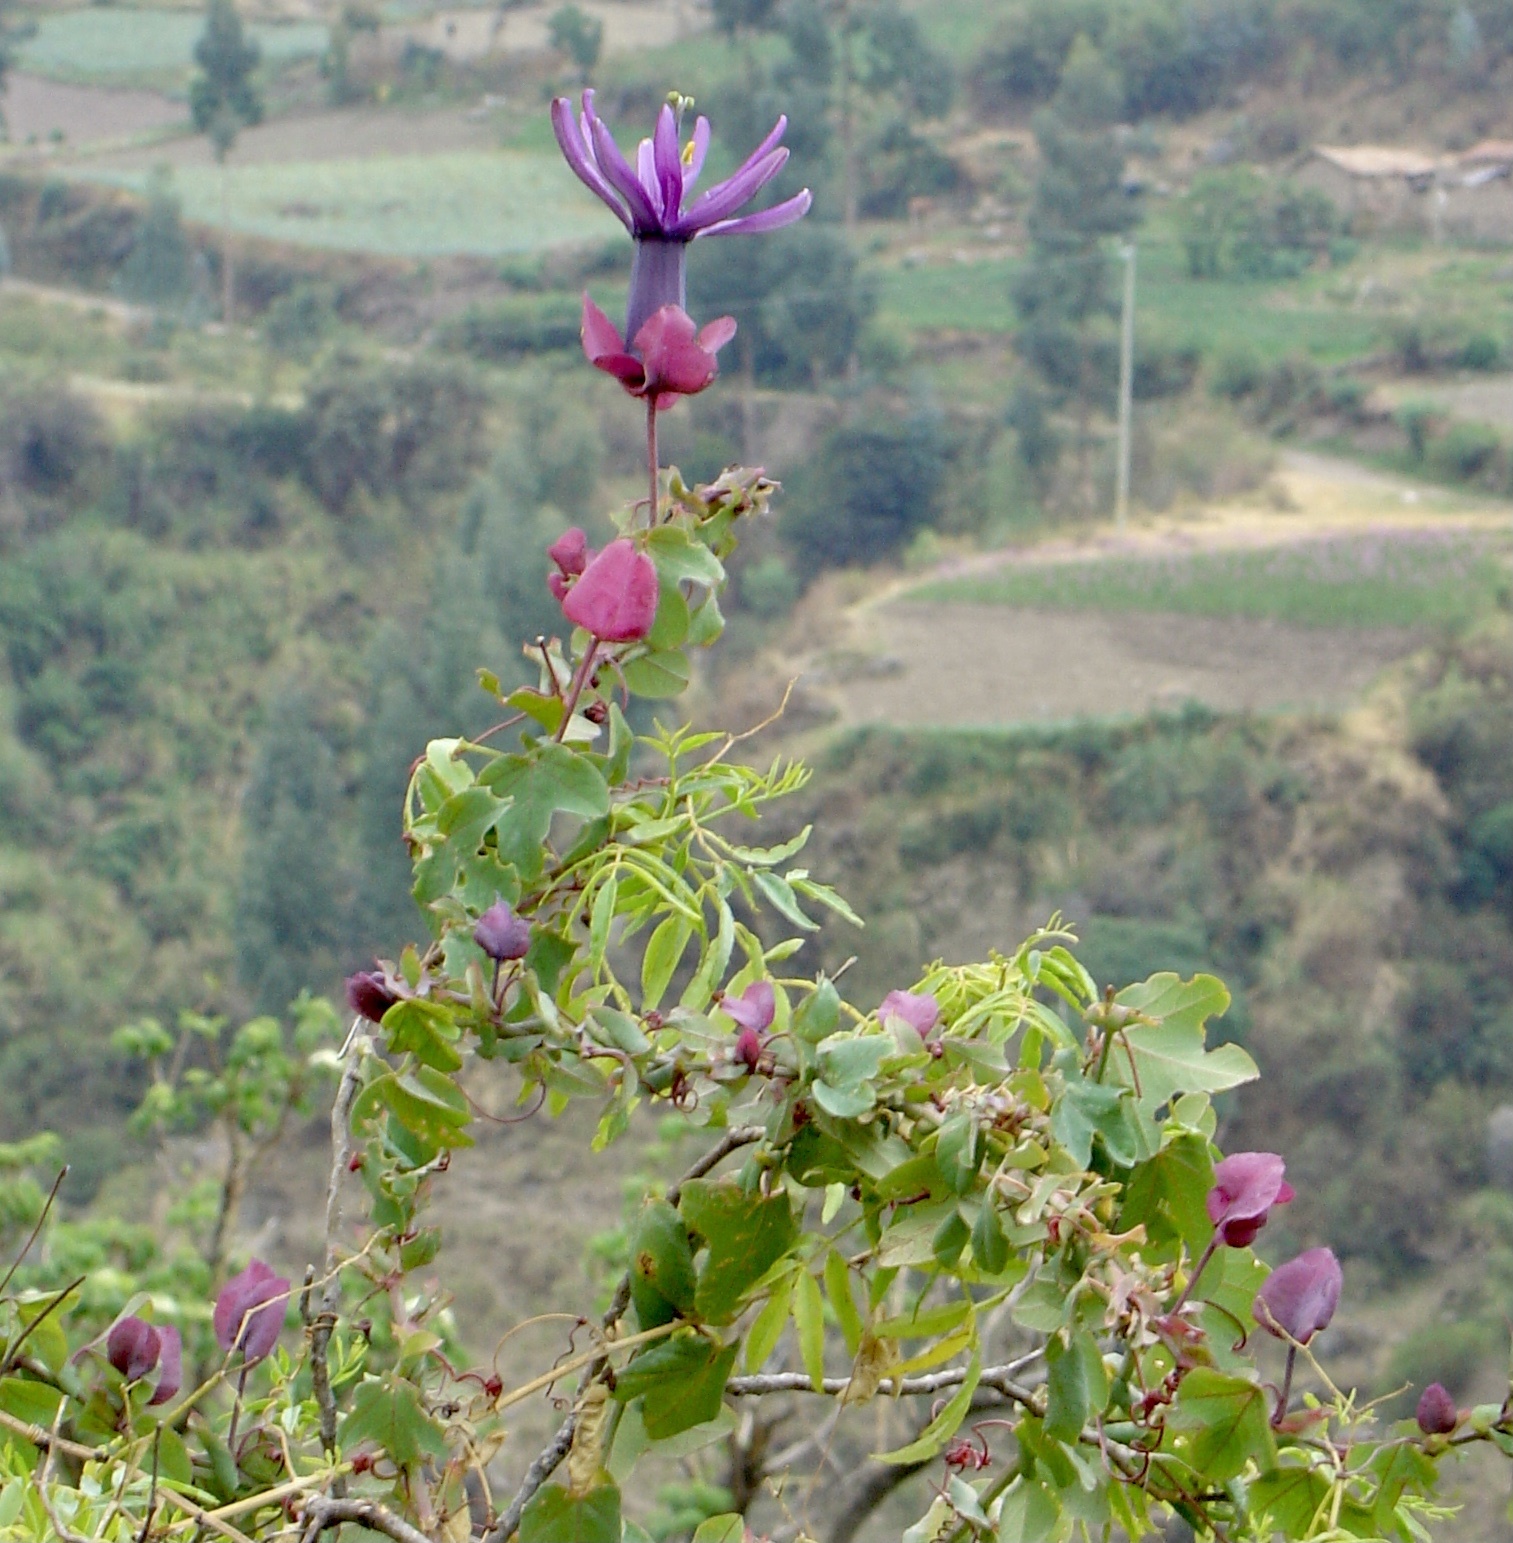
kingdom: Plantae
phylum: Tracheophyta
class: Magnoliopsida
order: Malpighiales
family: Passifloraceae
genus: Passiflora
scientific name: Passiflora umbilicata
